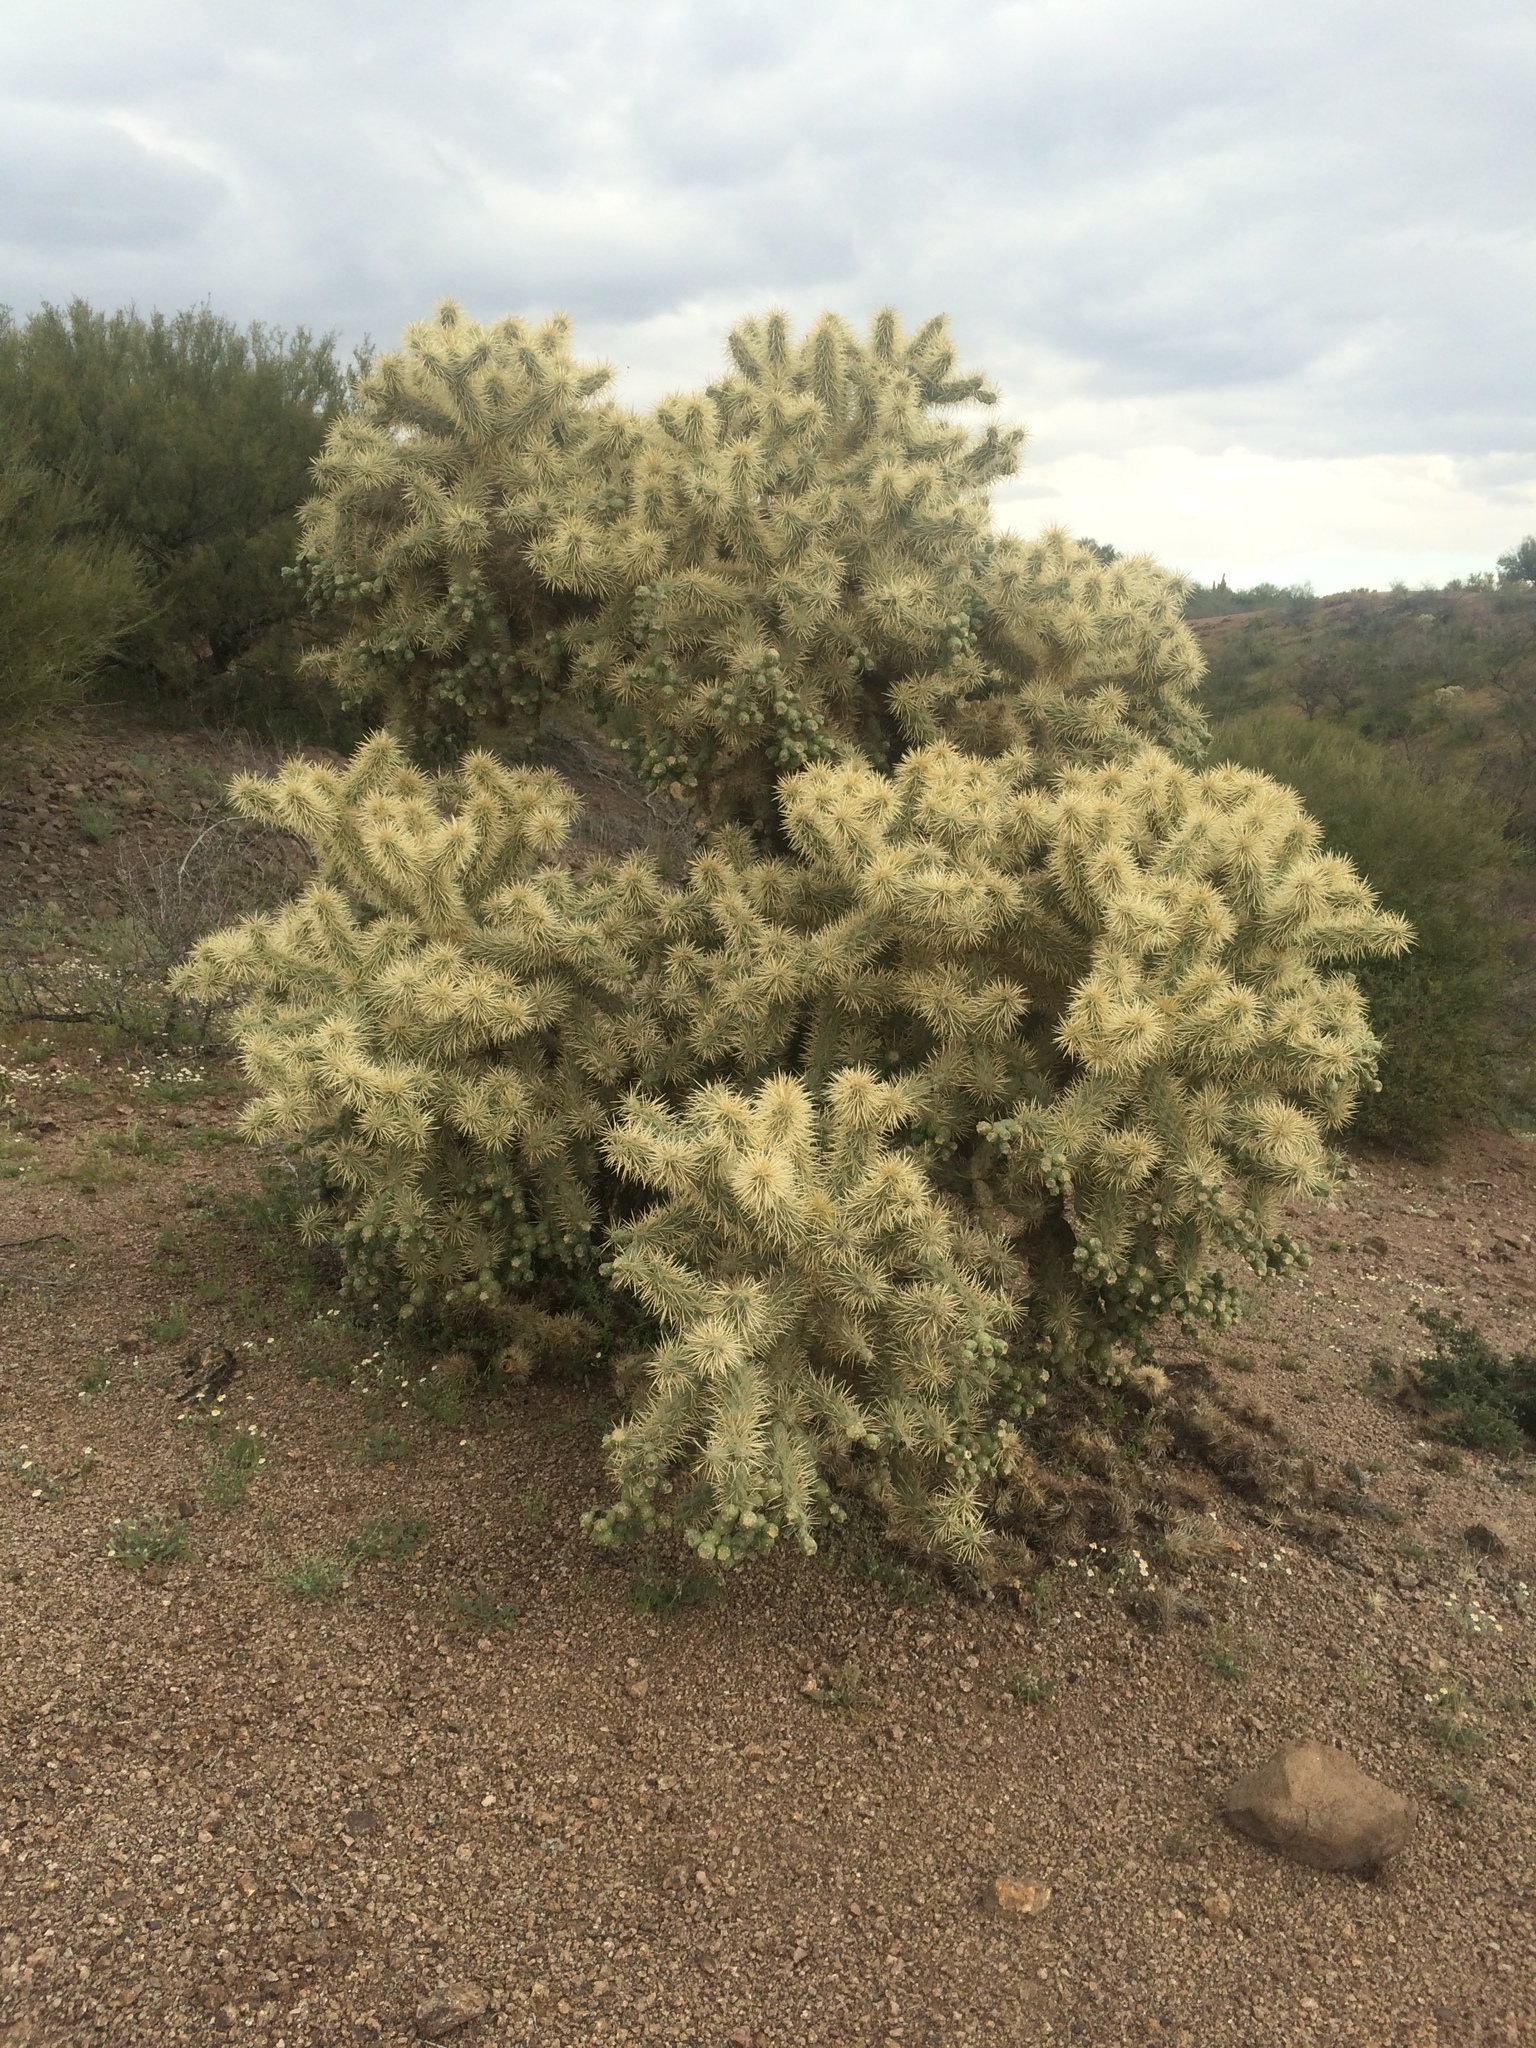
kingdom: Plantae
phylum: Tracheophyta
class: Magnoliopsida
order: Caryophyllales
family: Cactaceae
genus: Cylindropuntia
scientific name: Cylindropuntia fulgida
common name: Jumping cholla
